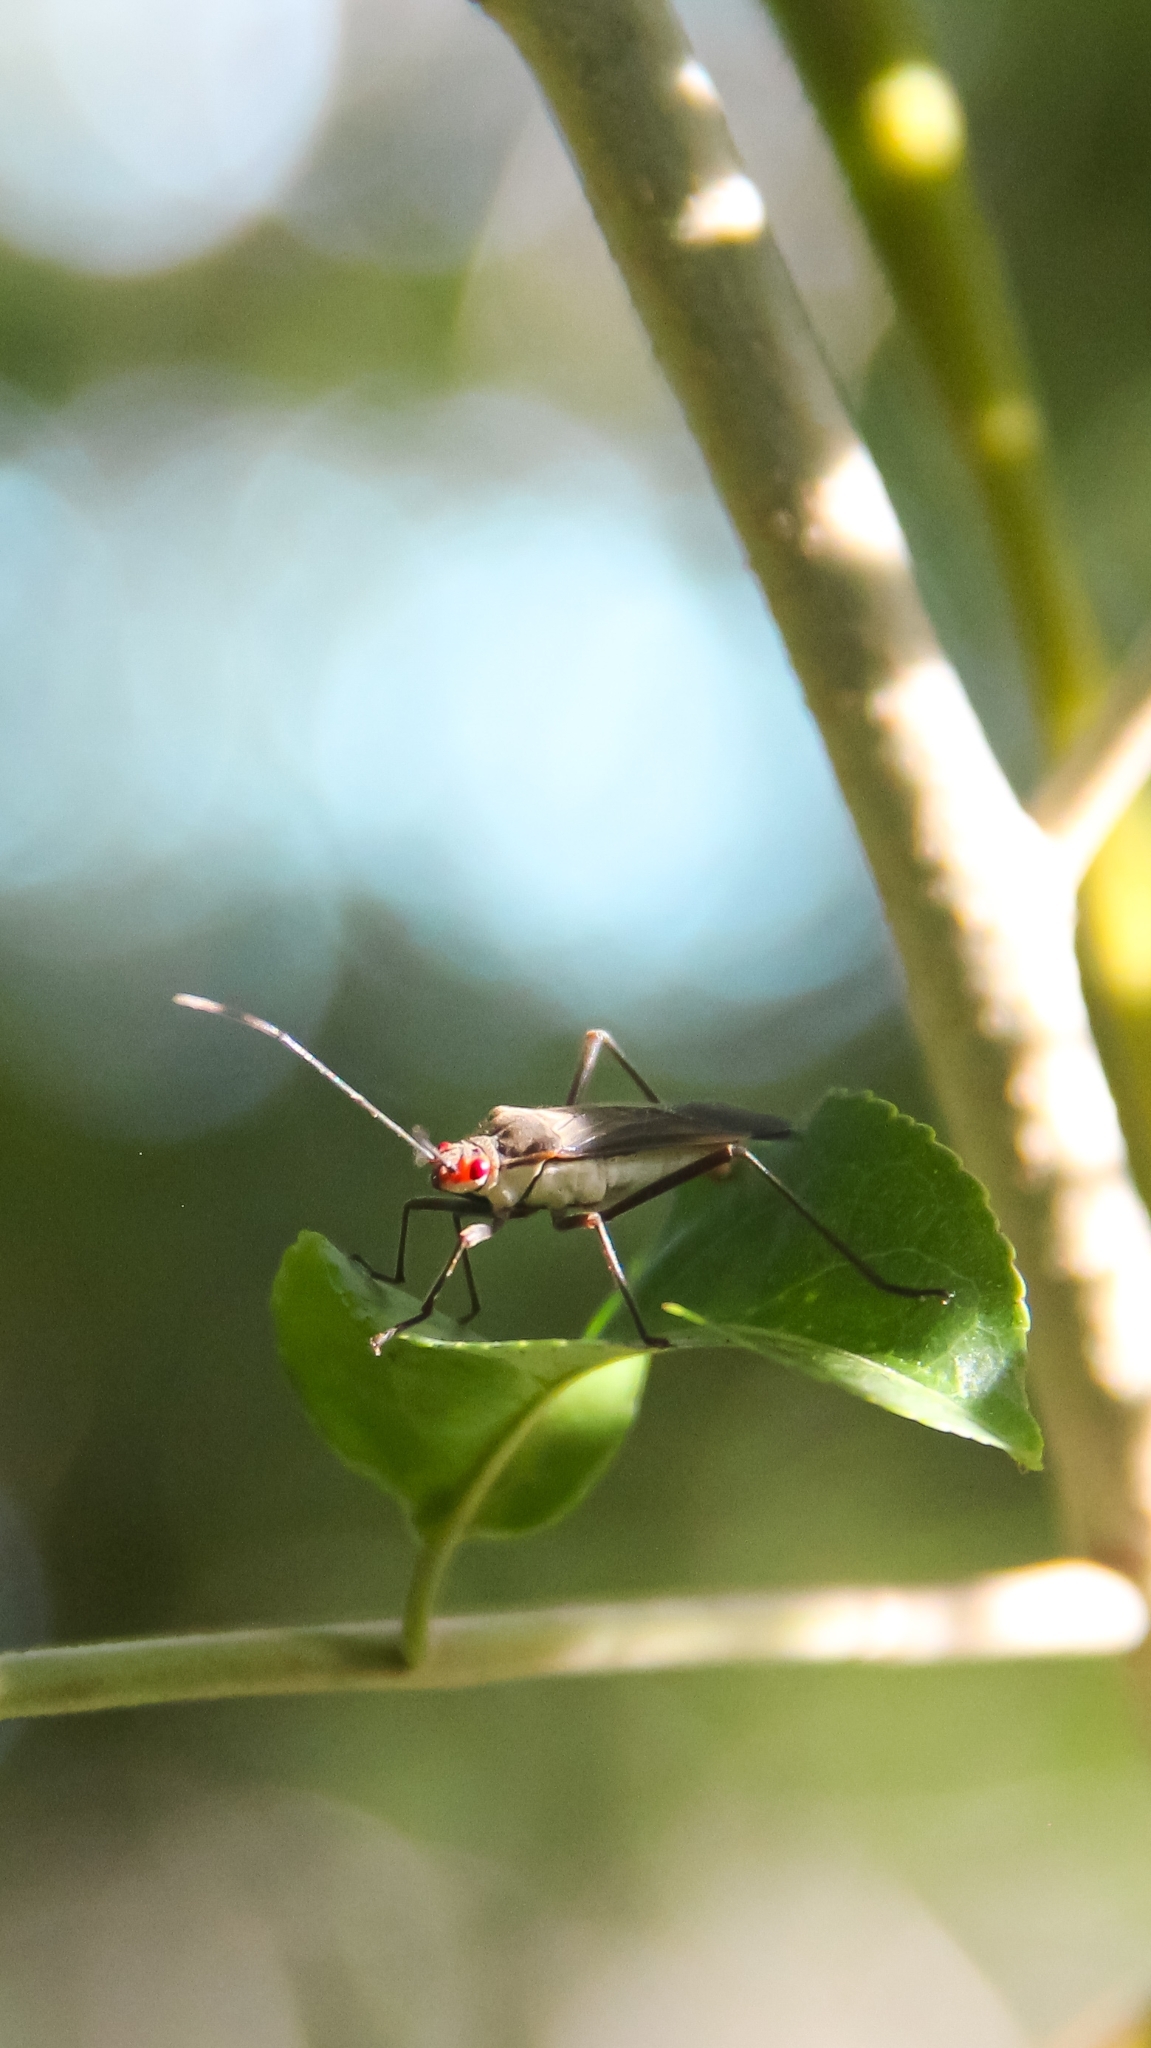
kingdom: Animalia
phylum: Arthropoda
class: Insecta
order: Hemiptera
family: Rhopalidae
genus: Jadera
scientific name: Jadera obscura
